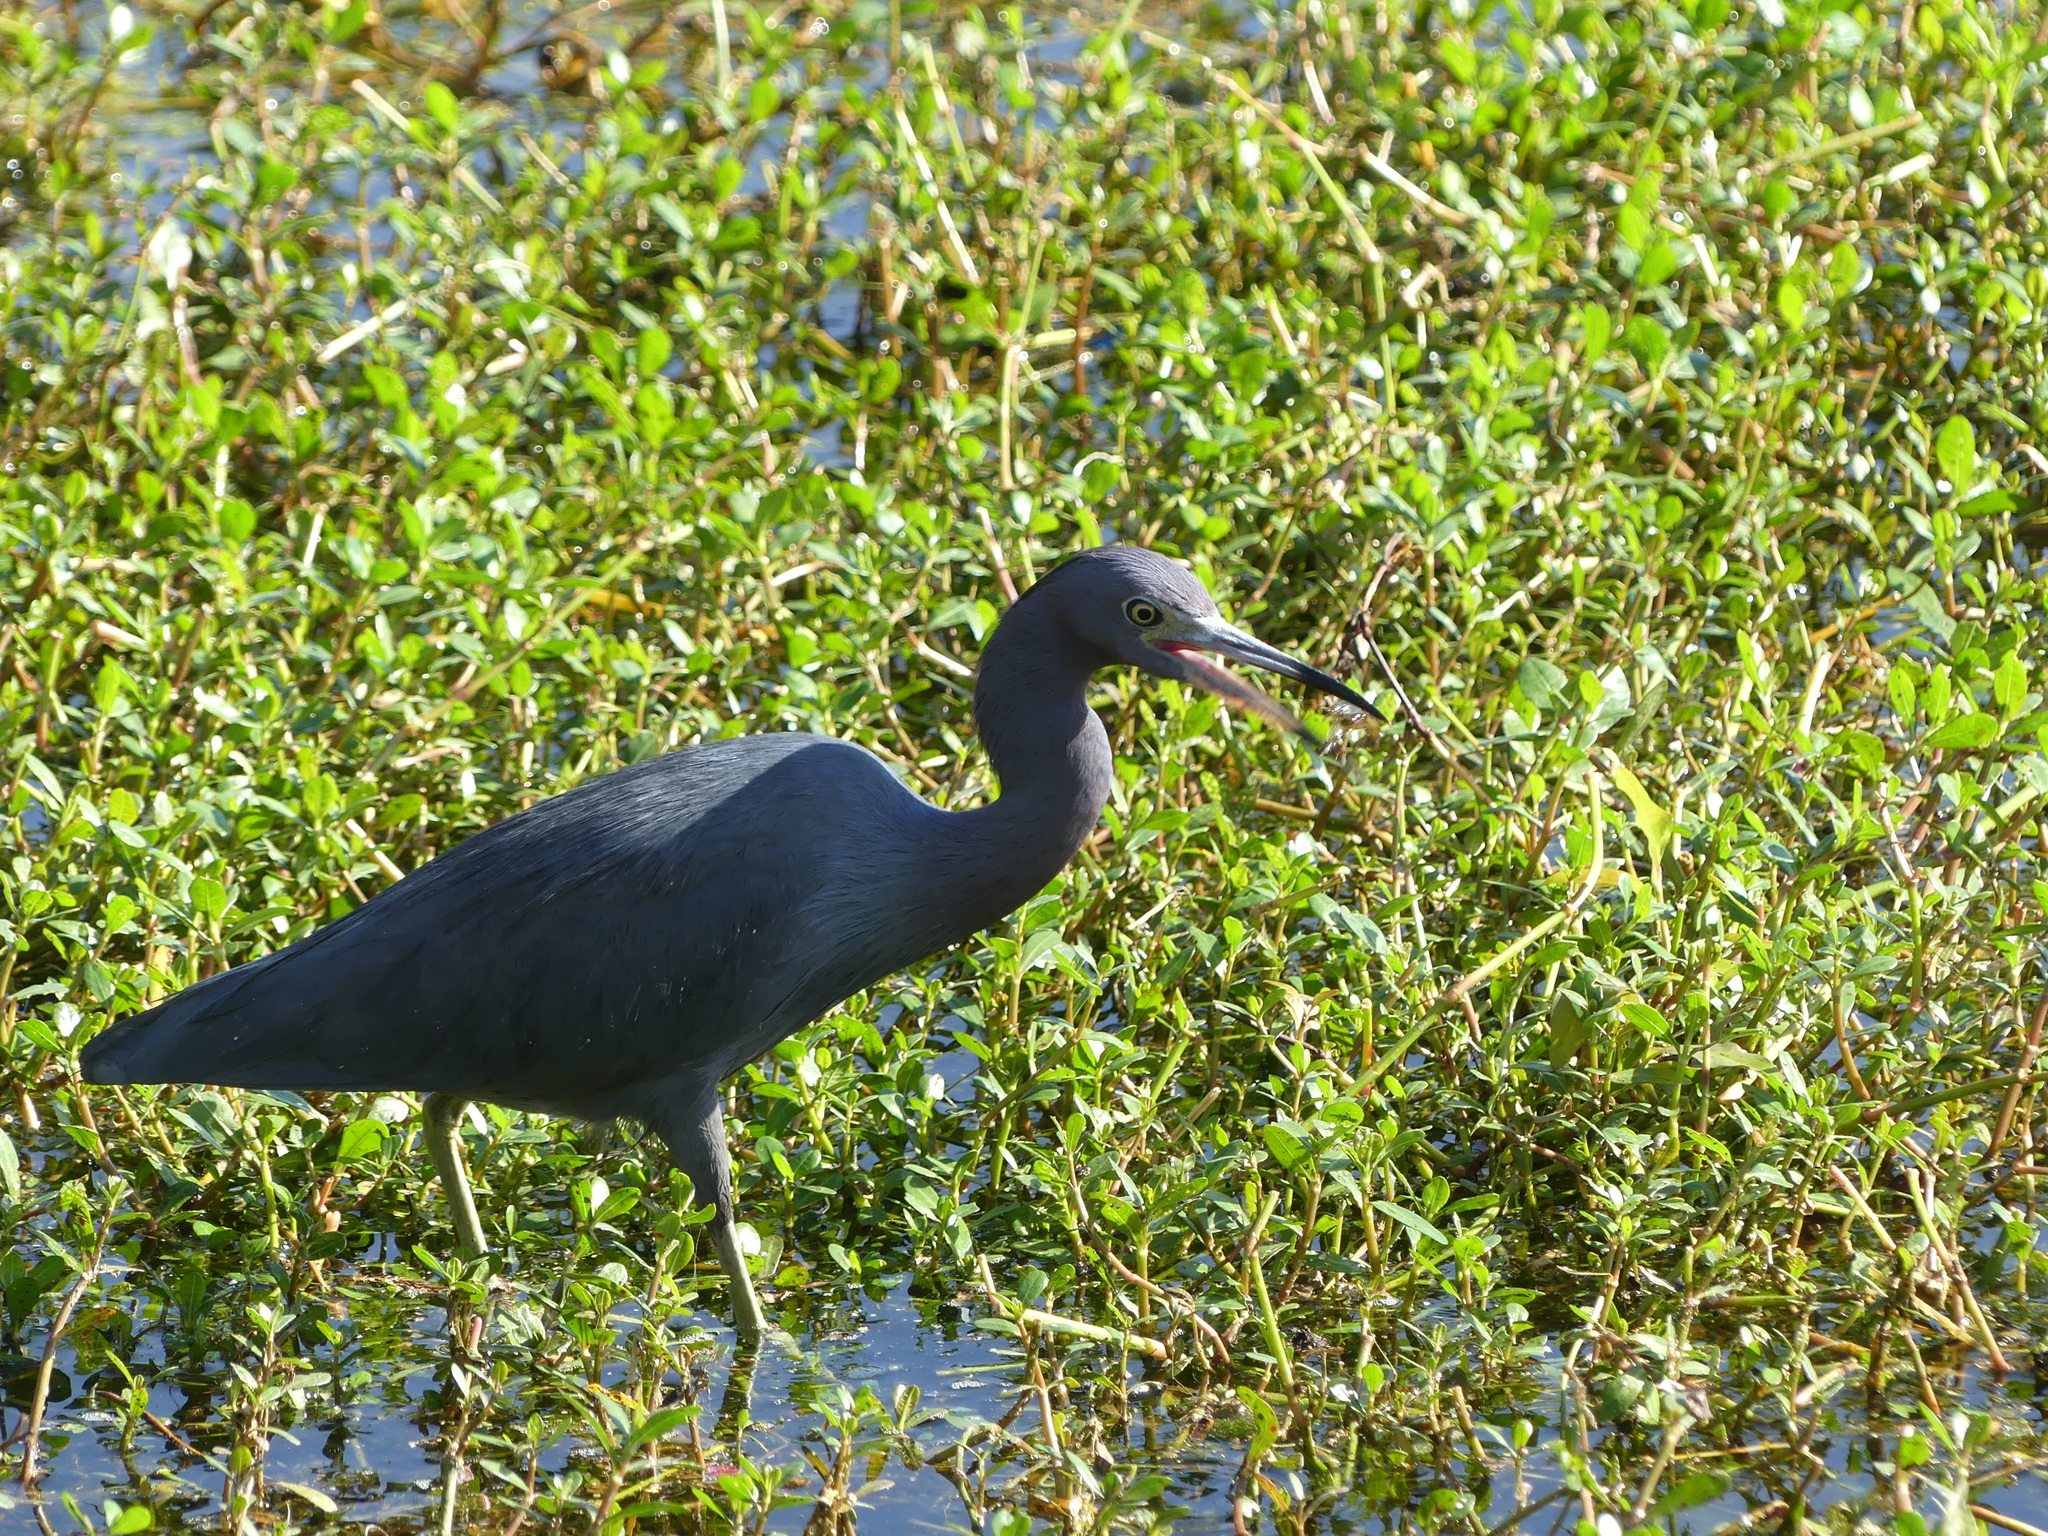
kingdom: Animalia
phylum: Chordata
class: Aves
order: Pelecaniformes
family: Ardeidae
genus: Egretta
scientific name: Egretta caerulea
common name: Little blue heron
